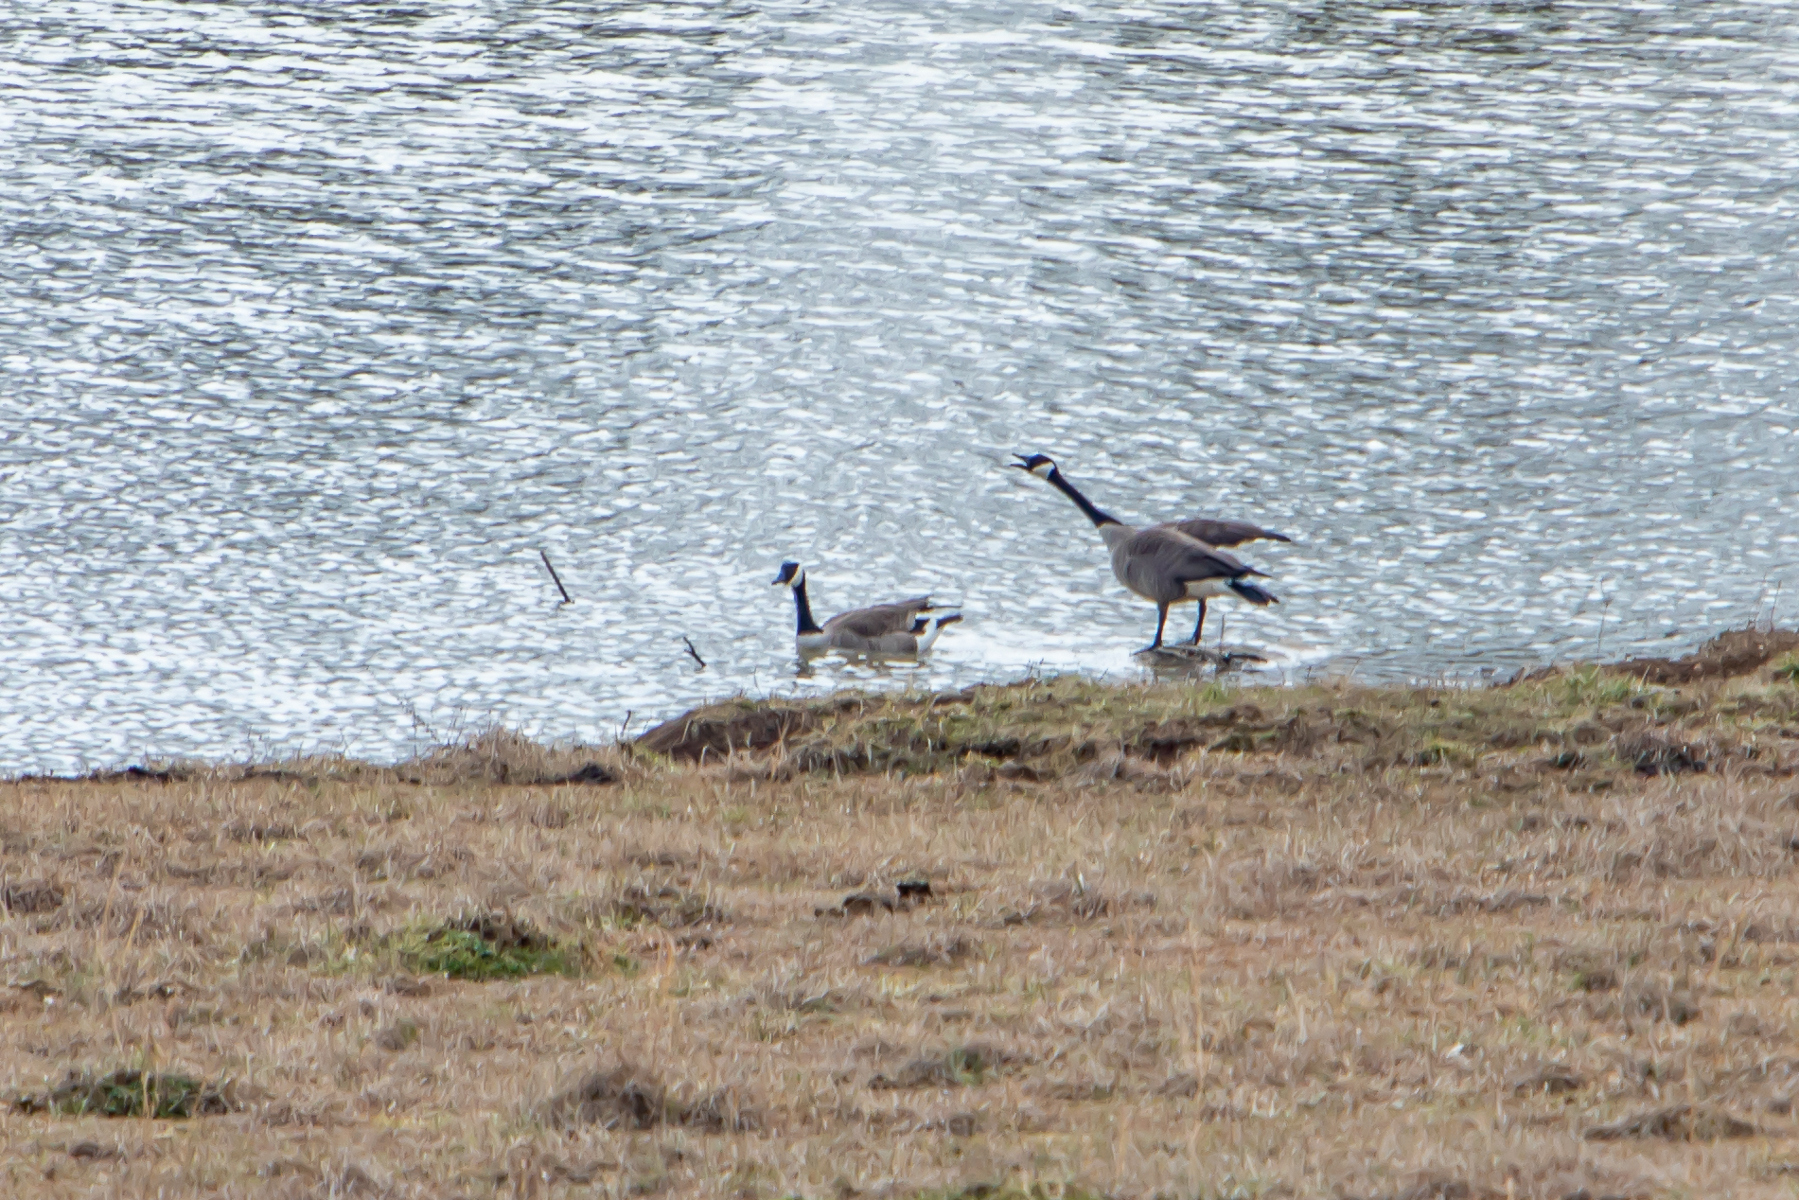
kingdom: Animalia
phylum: Chordata
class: Aves
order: Anseriformes
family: Anatidae
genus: Branta
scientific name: Branta canadensis
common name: Canada goose
